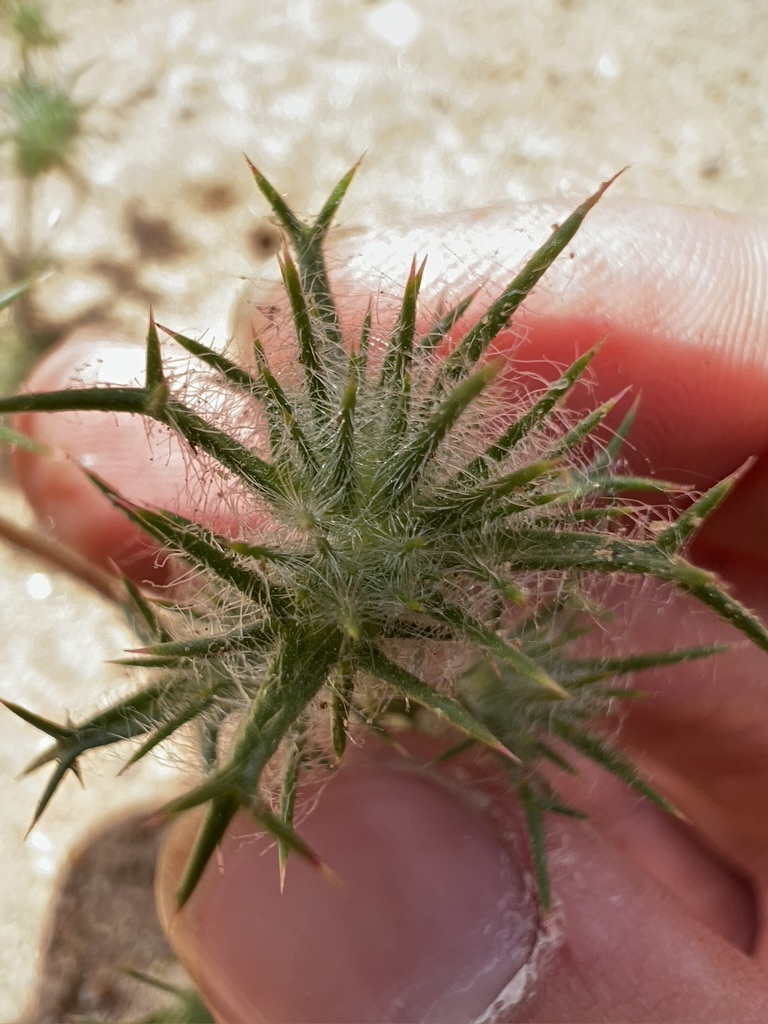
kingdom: Plantae
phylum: Tracheophyta
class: Magnoliopsida
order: Ericales
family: Polemoniaceae
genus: Navarretia
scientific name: Navarretia hamata
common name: Hooked navarretia
